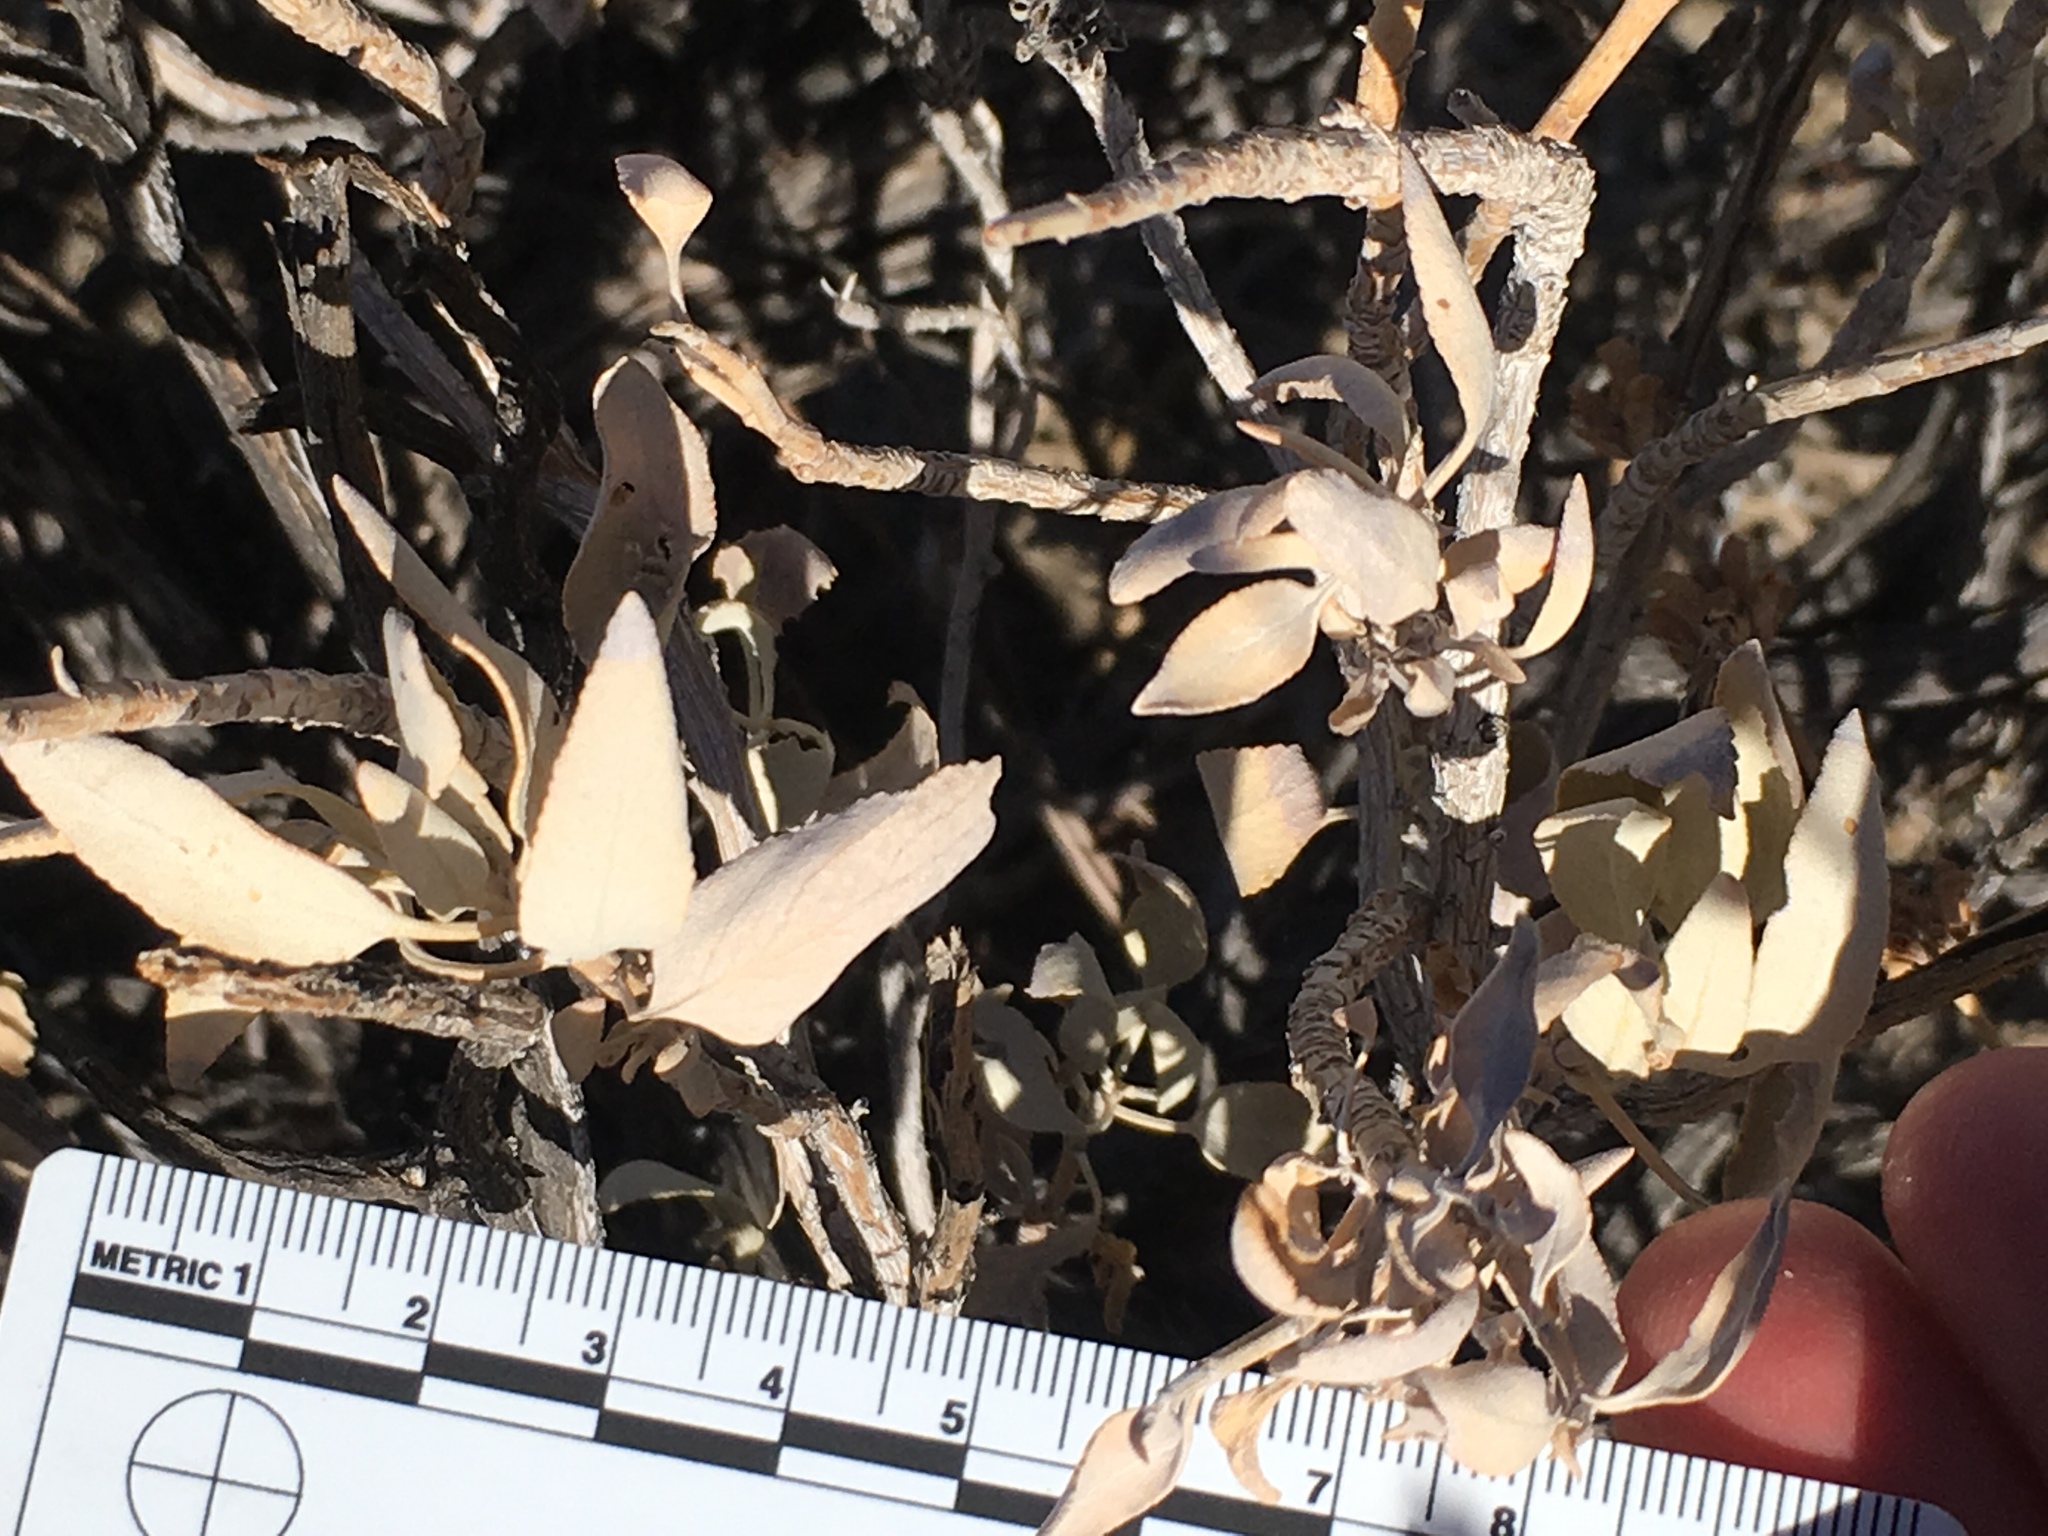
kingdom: Plantae
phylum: Tracheophyta
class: Magnoliopsida
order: Lamiales
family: Lamiaceae
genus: Salvia
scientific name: Salvia vaseyi
